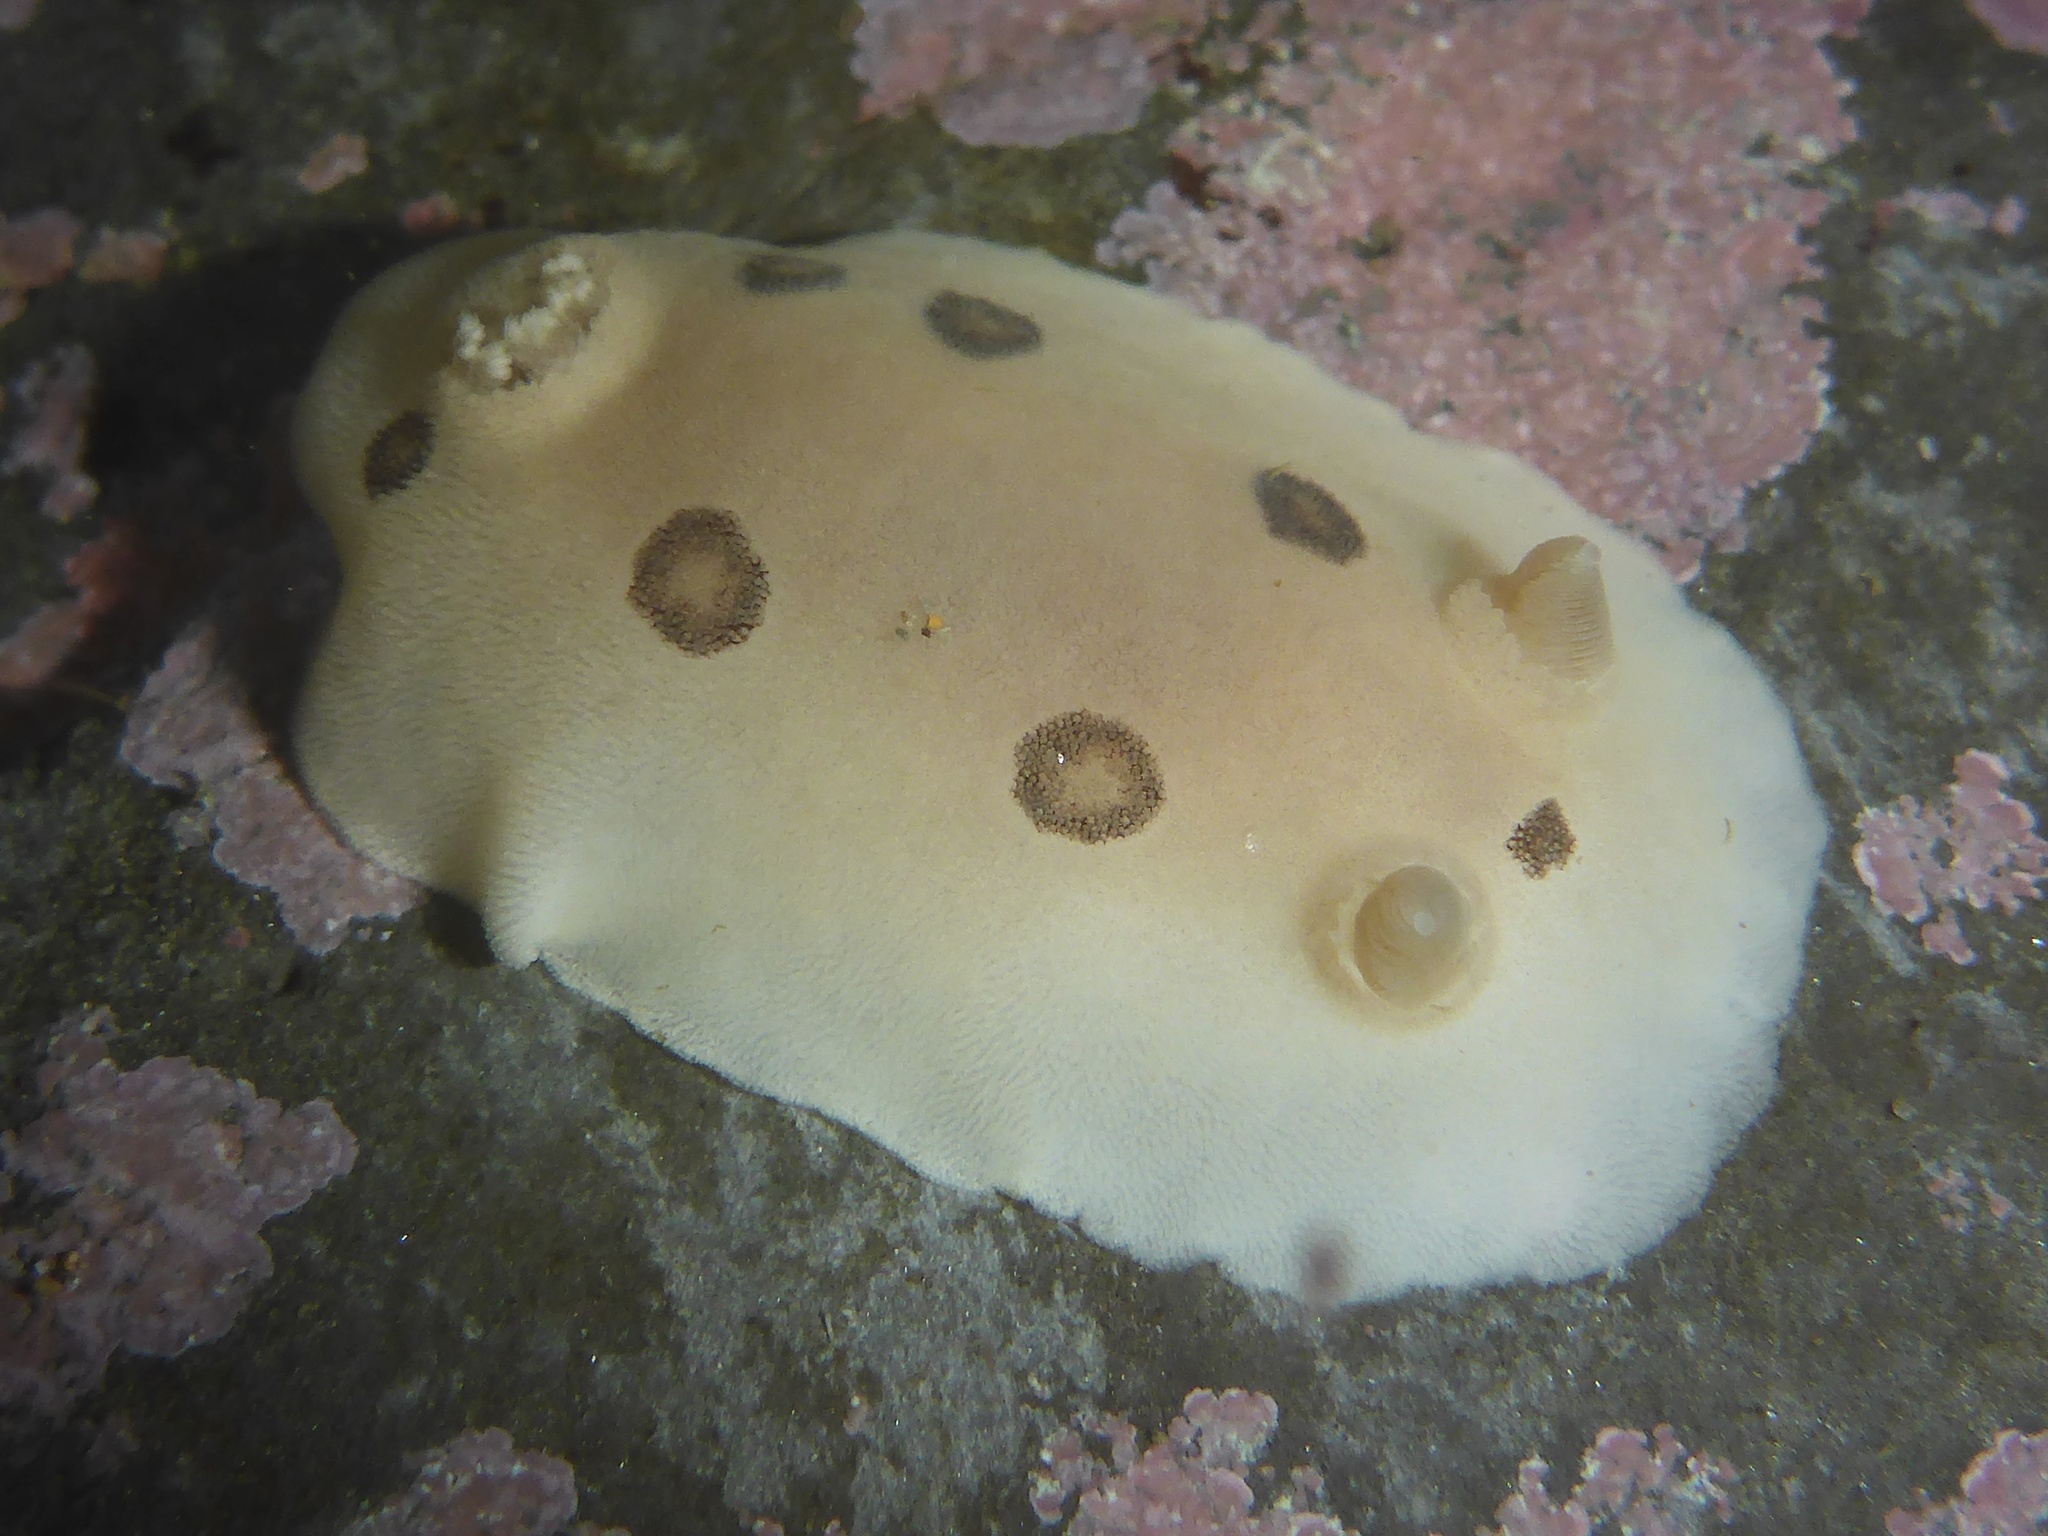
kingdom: Animalia
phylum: Mollusca
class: Gastropoda
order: Nudibranchia
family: Discodorididae
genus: Diaulula
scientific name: Diaulula sandiegensis
